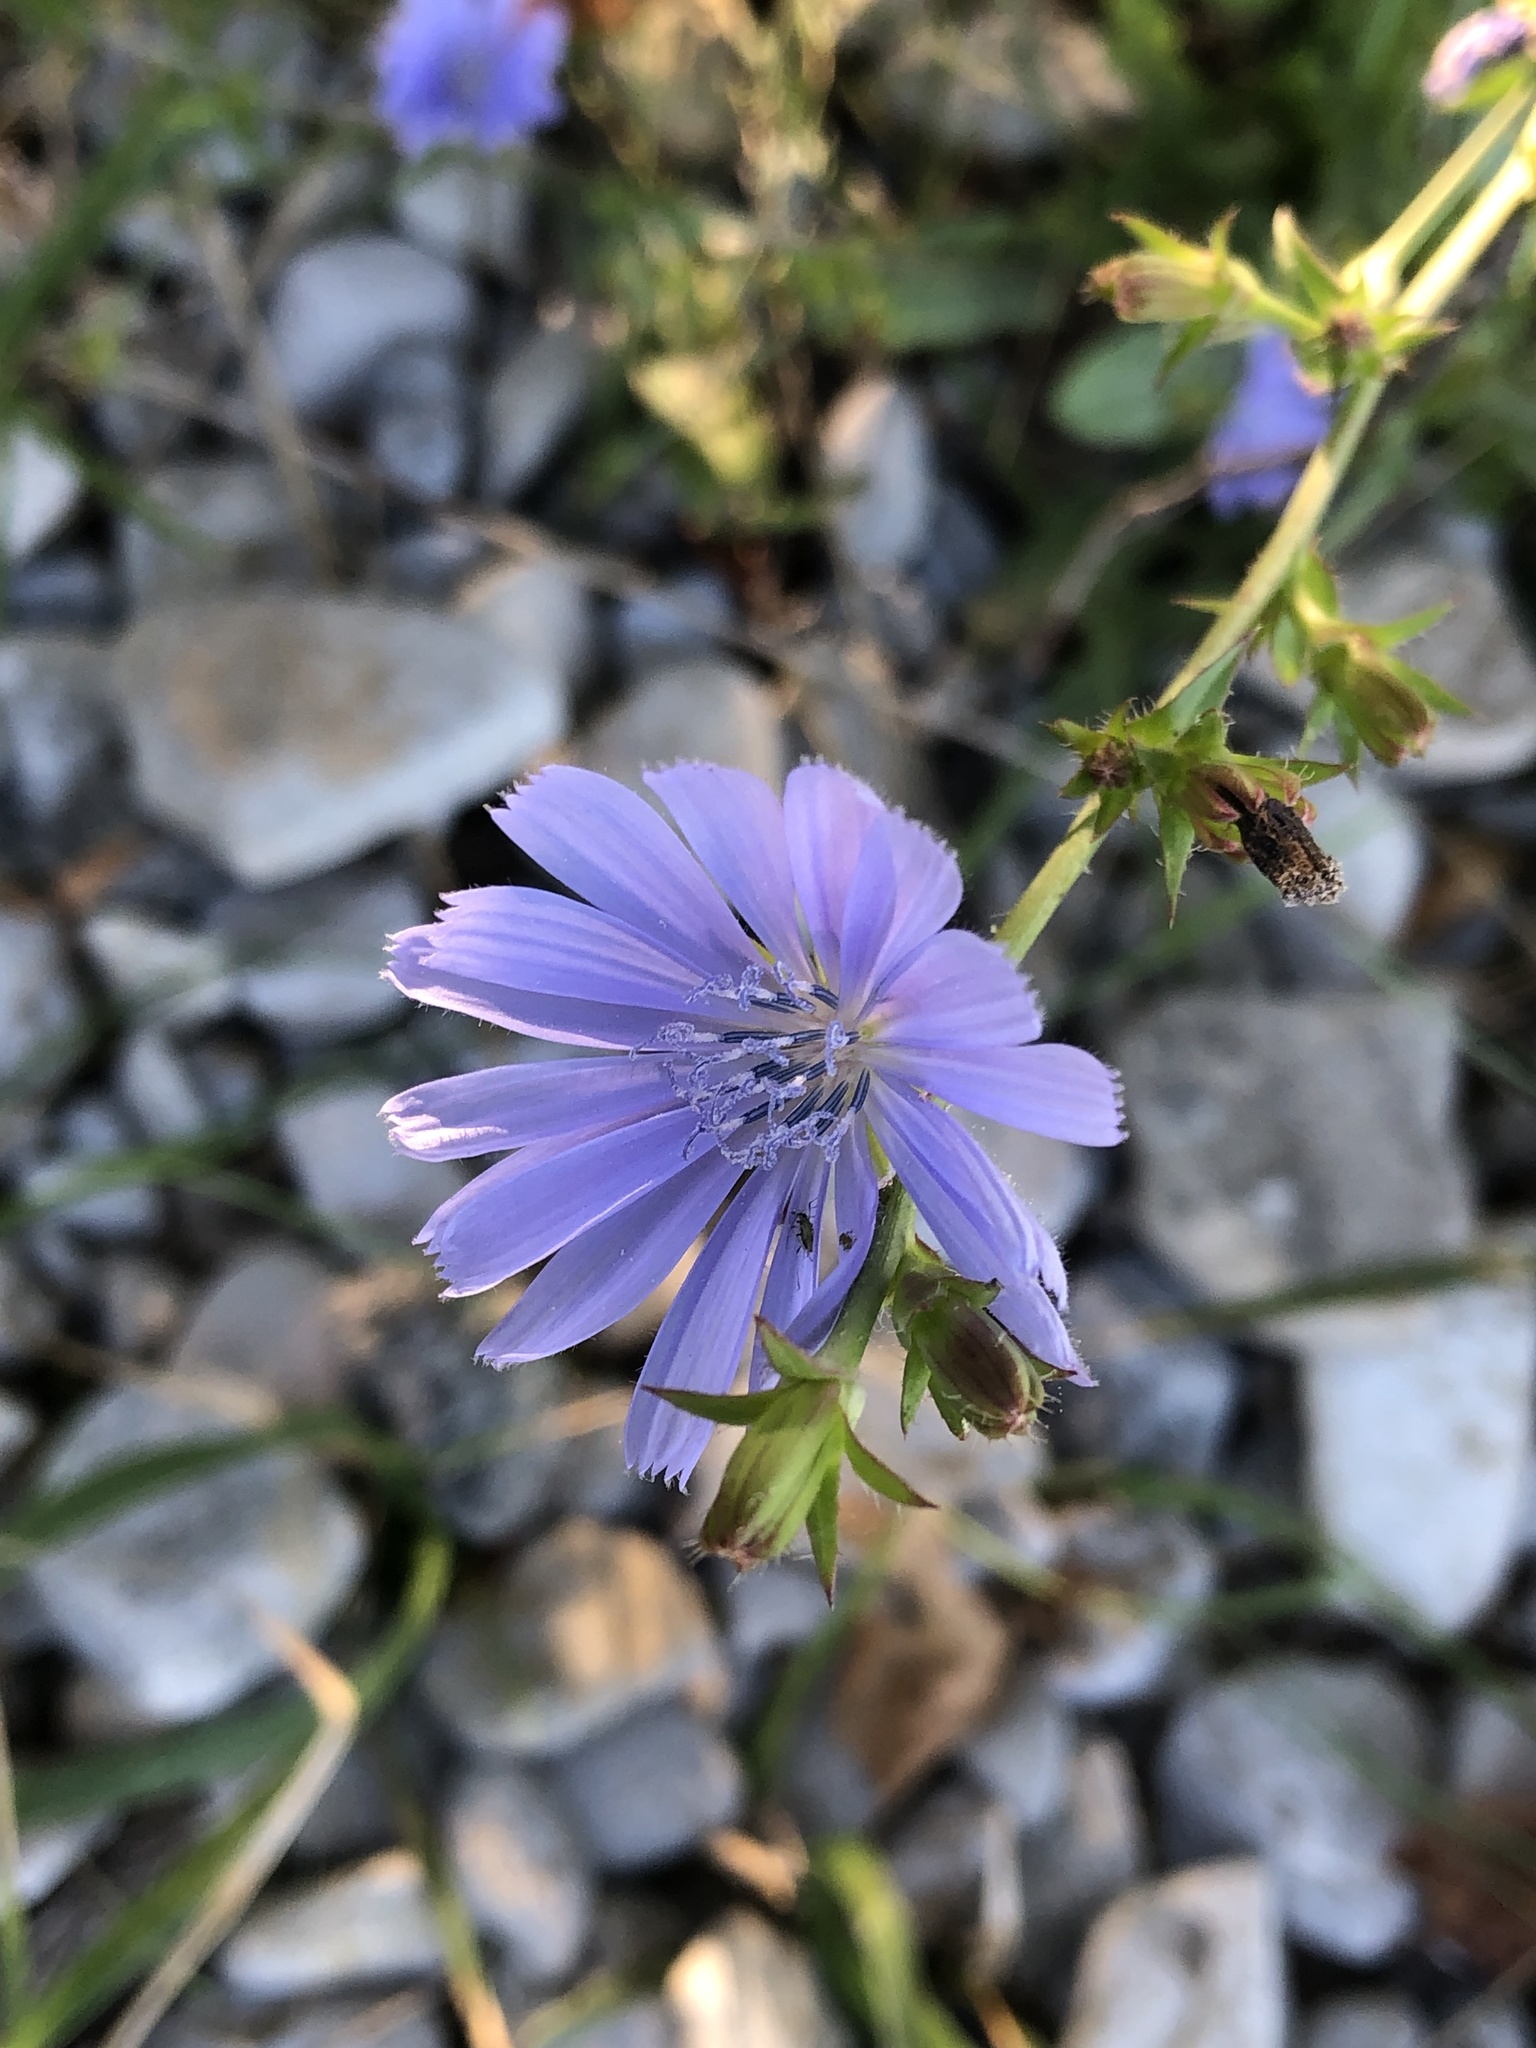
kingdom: Plantae
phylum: Tracheophyta
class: Magnoliopsida
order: Asterales
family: Asteraceae
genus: Cichorium
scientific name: Cichorium intybus
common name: Chicory
